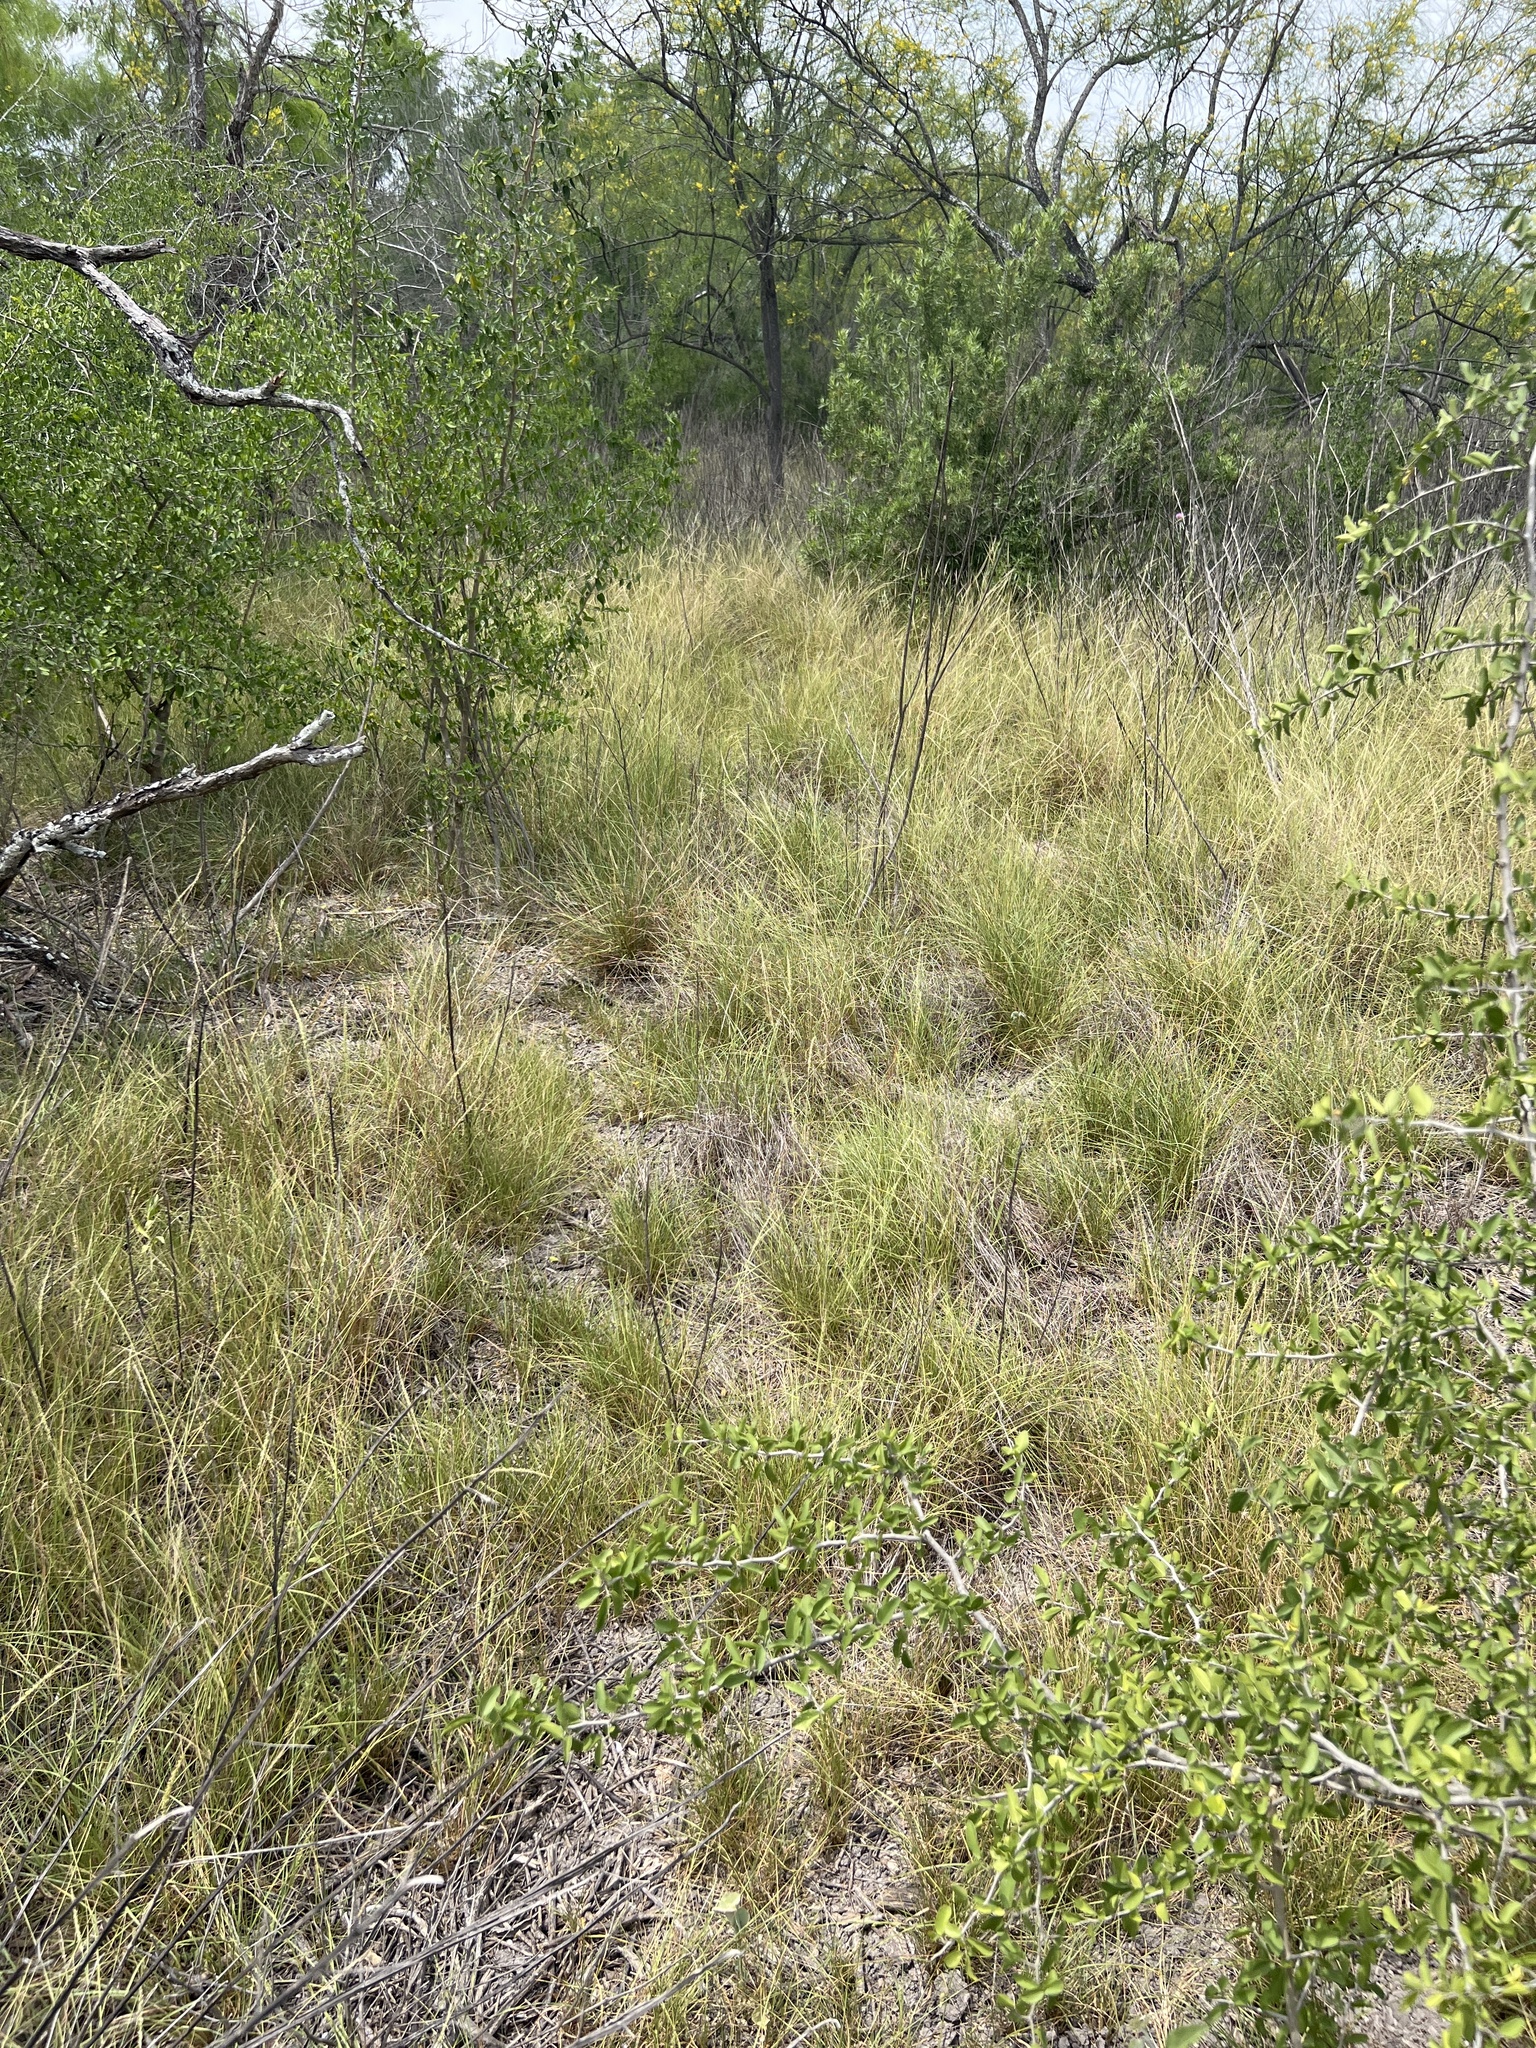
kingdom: Plantae
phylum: Tracheophyta
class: Liliopsida
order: Poales
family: Poaceae
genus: Setaria
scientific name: Setaria leucopila
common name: Plains bristle grass
